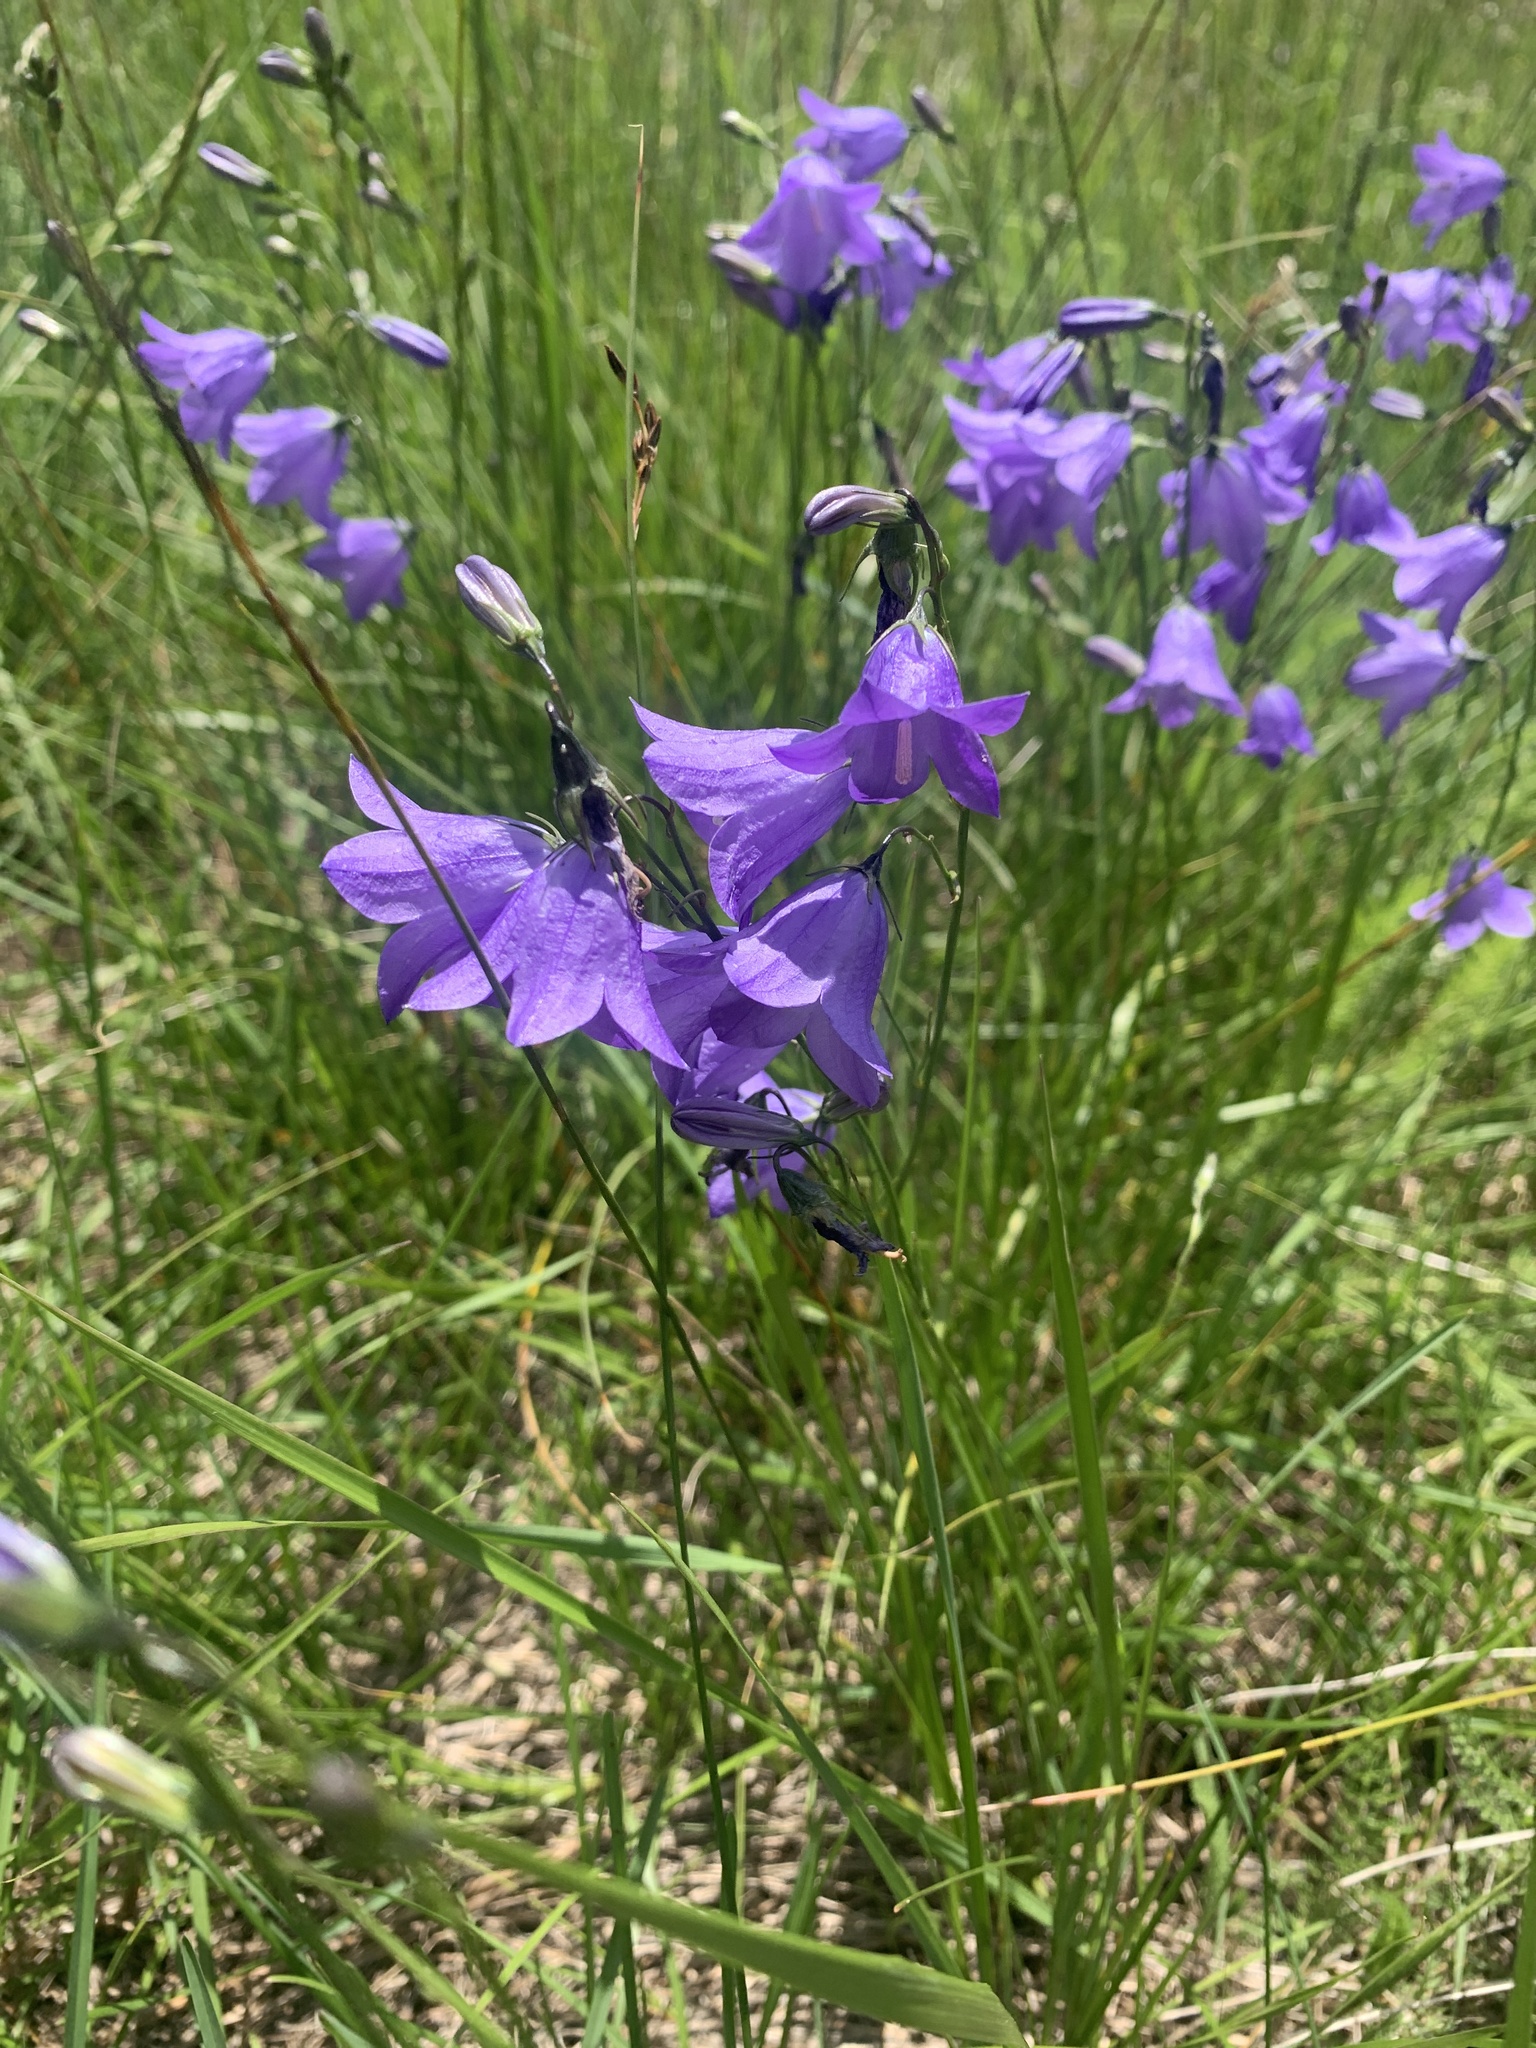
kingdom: Plantae
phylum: Tracheophyta
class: Magnoliopsida
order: Asterales
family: Campanulaceae
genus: Campanula
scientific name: Campanula petiolata
